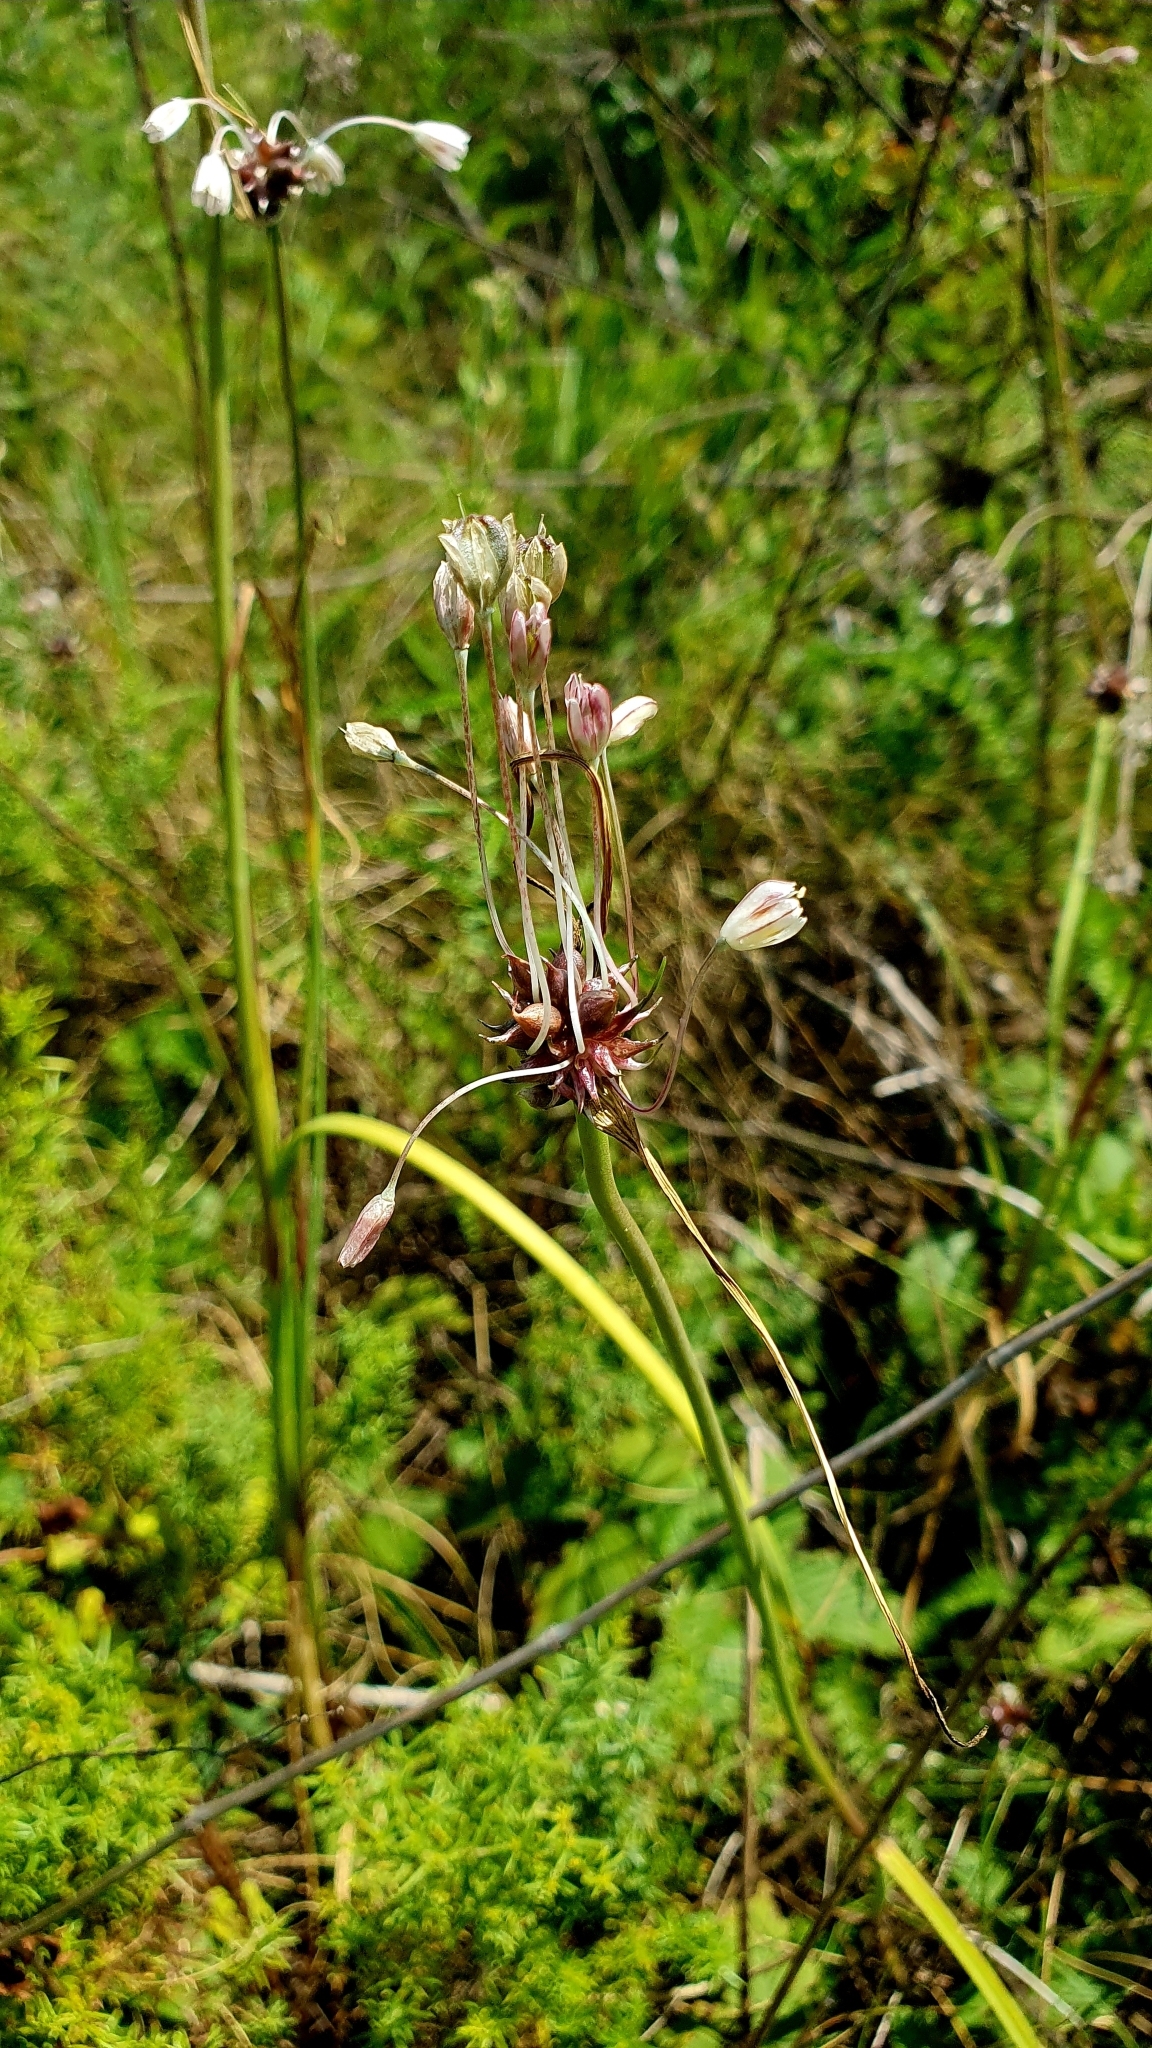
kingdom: Plantae
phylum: Tracheophyta
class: Liliopsida
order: Asparagales
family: Amaryllidaceae
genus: Allium
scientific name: Allium oleraceum
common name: Field garlic
